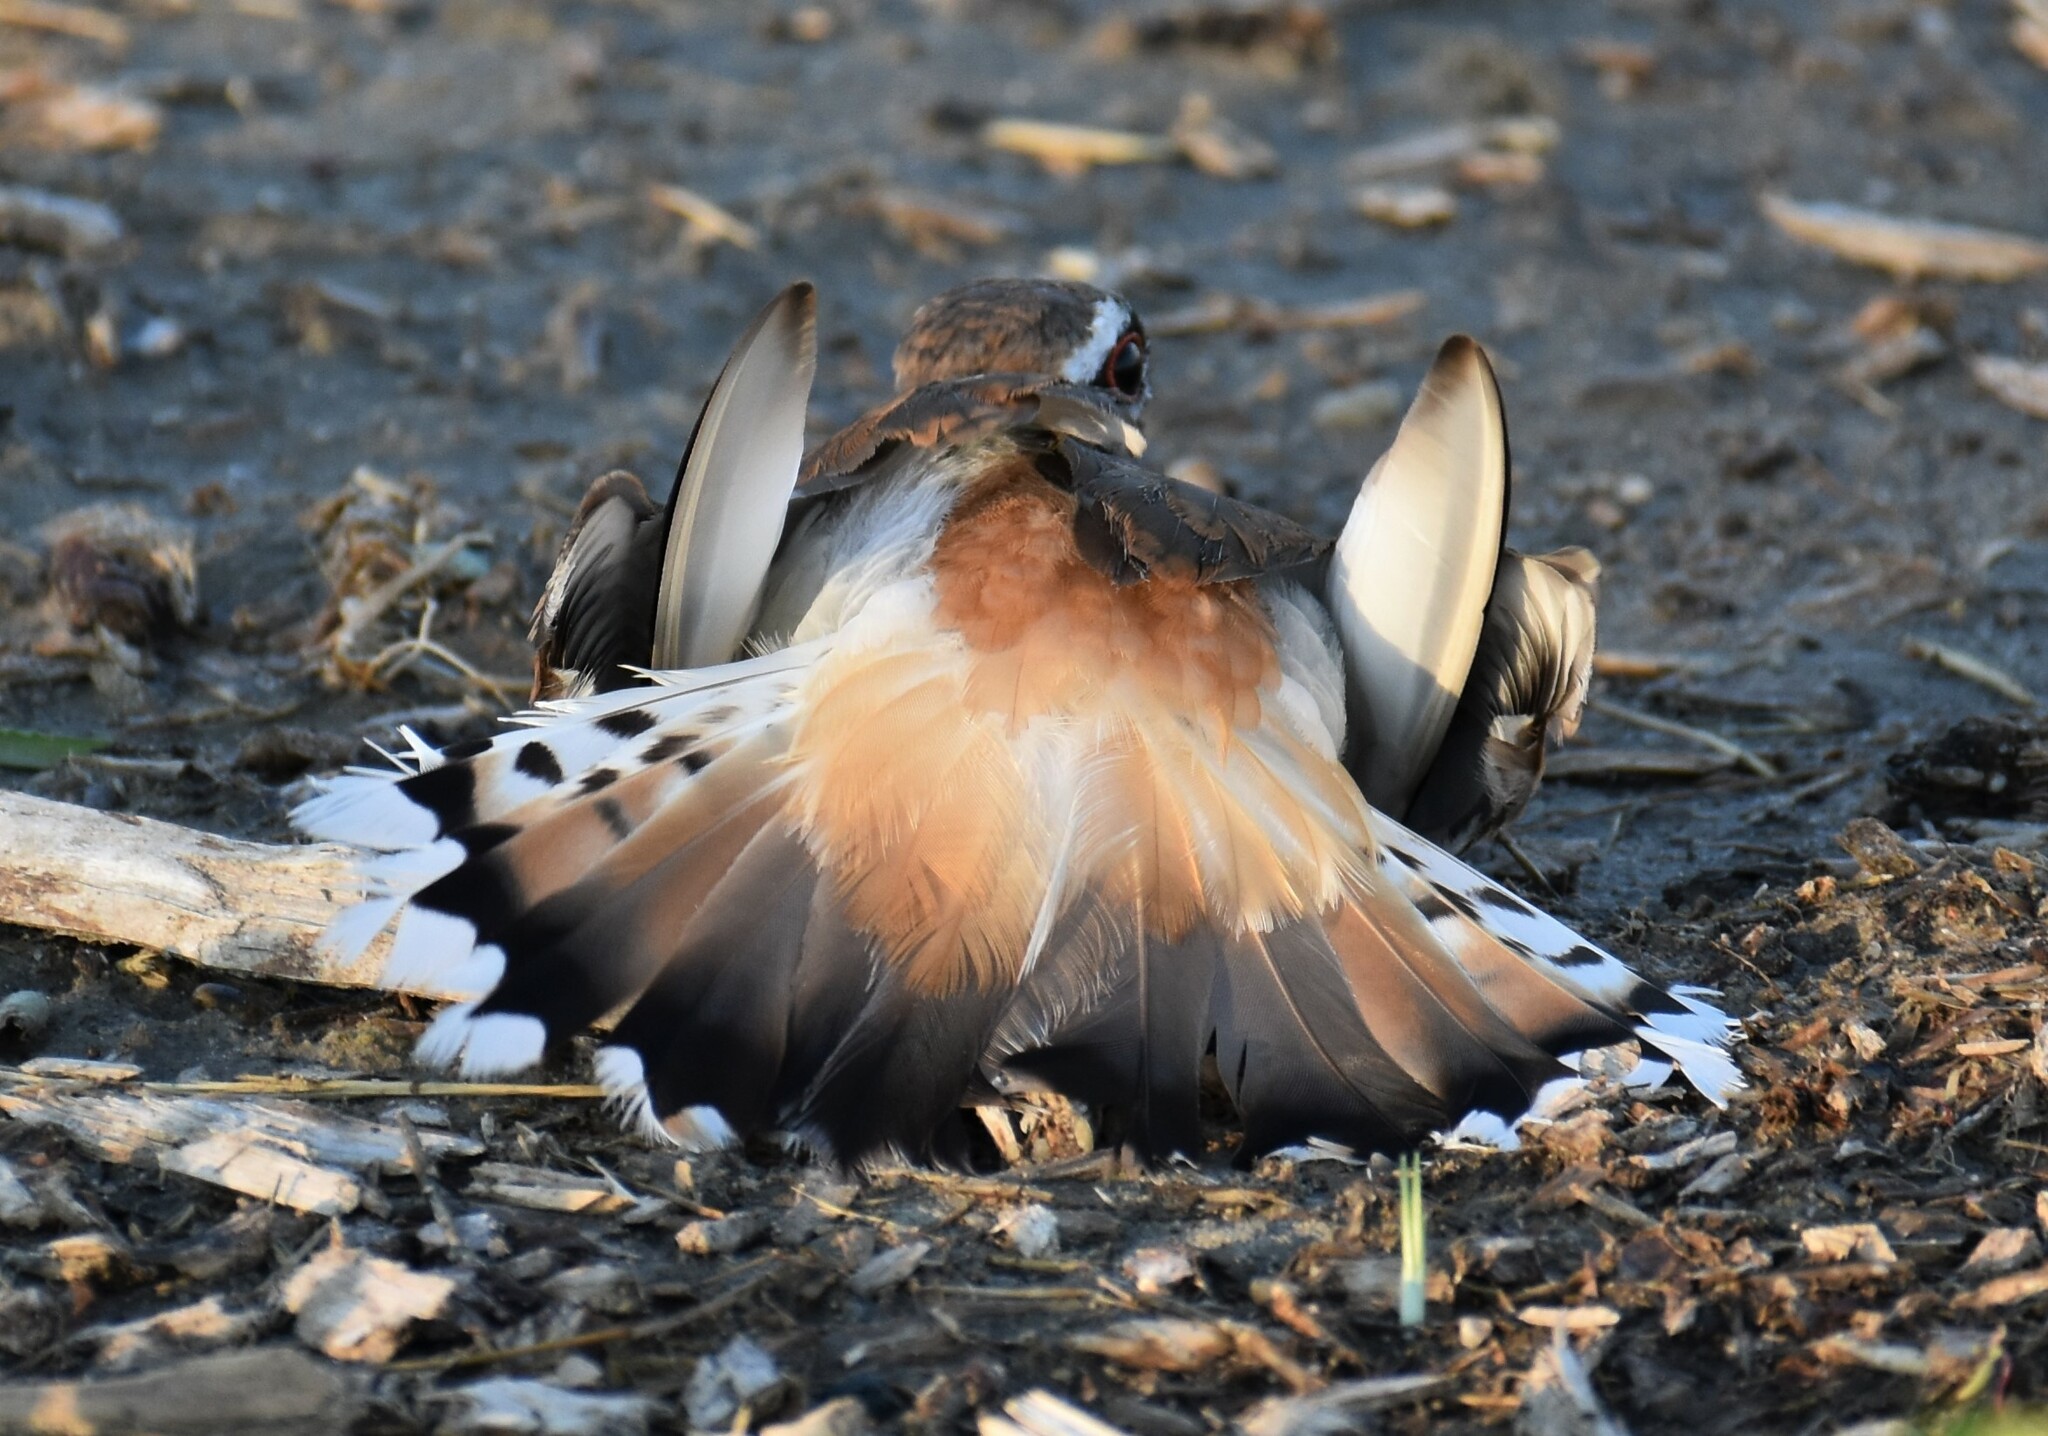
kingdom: Animalia
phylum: Chordata
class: Aves
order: Charadriiformes
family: Charadriidae
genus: Charadrius
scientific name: Charadrius vociferus
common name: Killdeer
